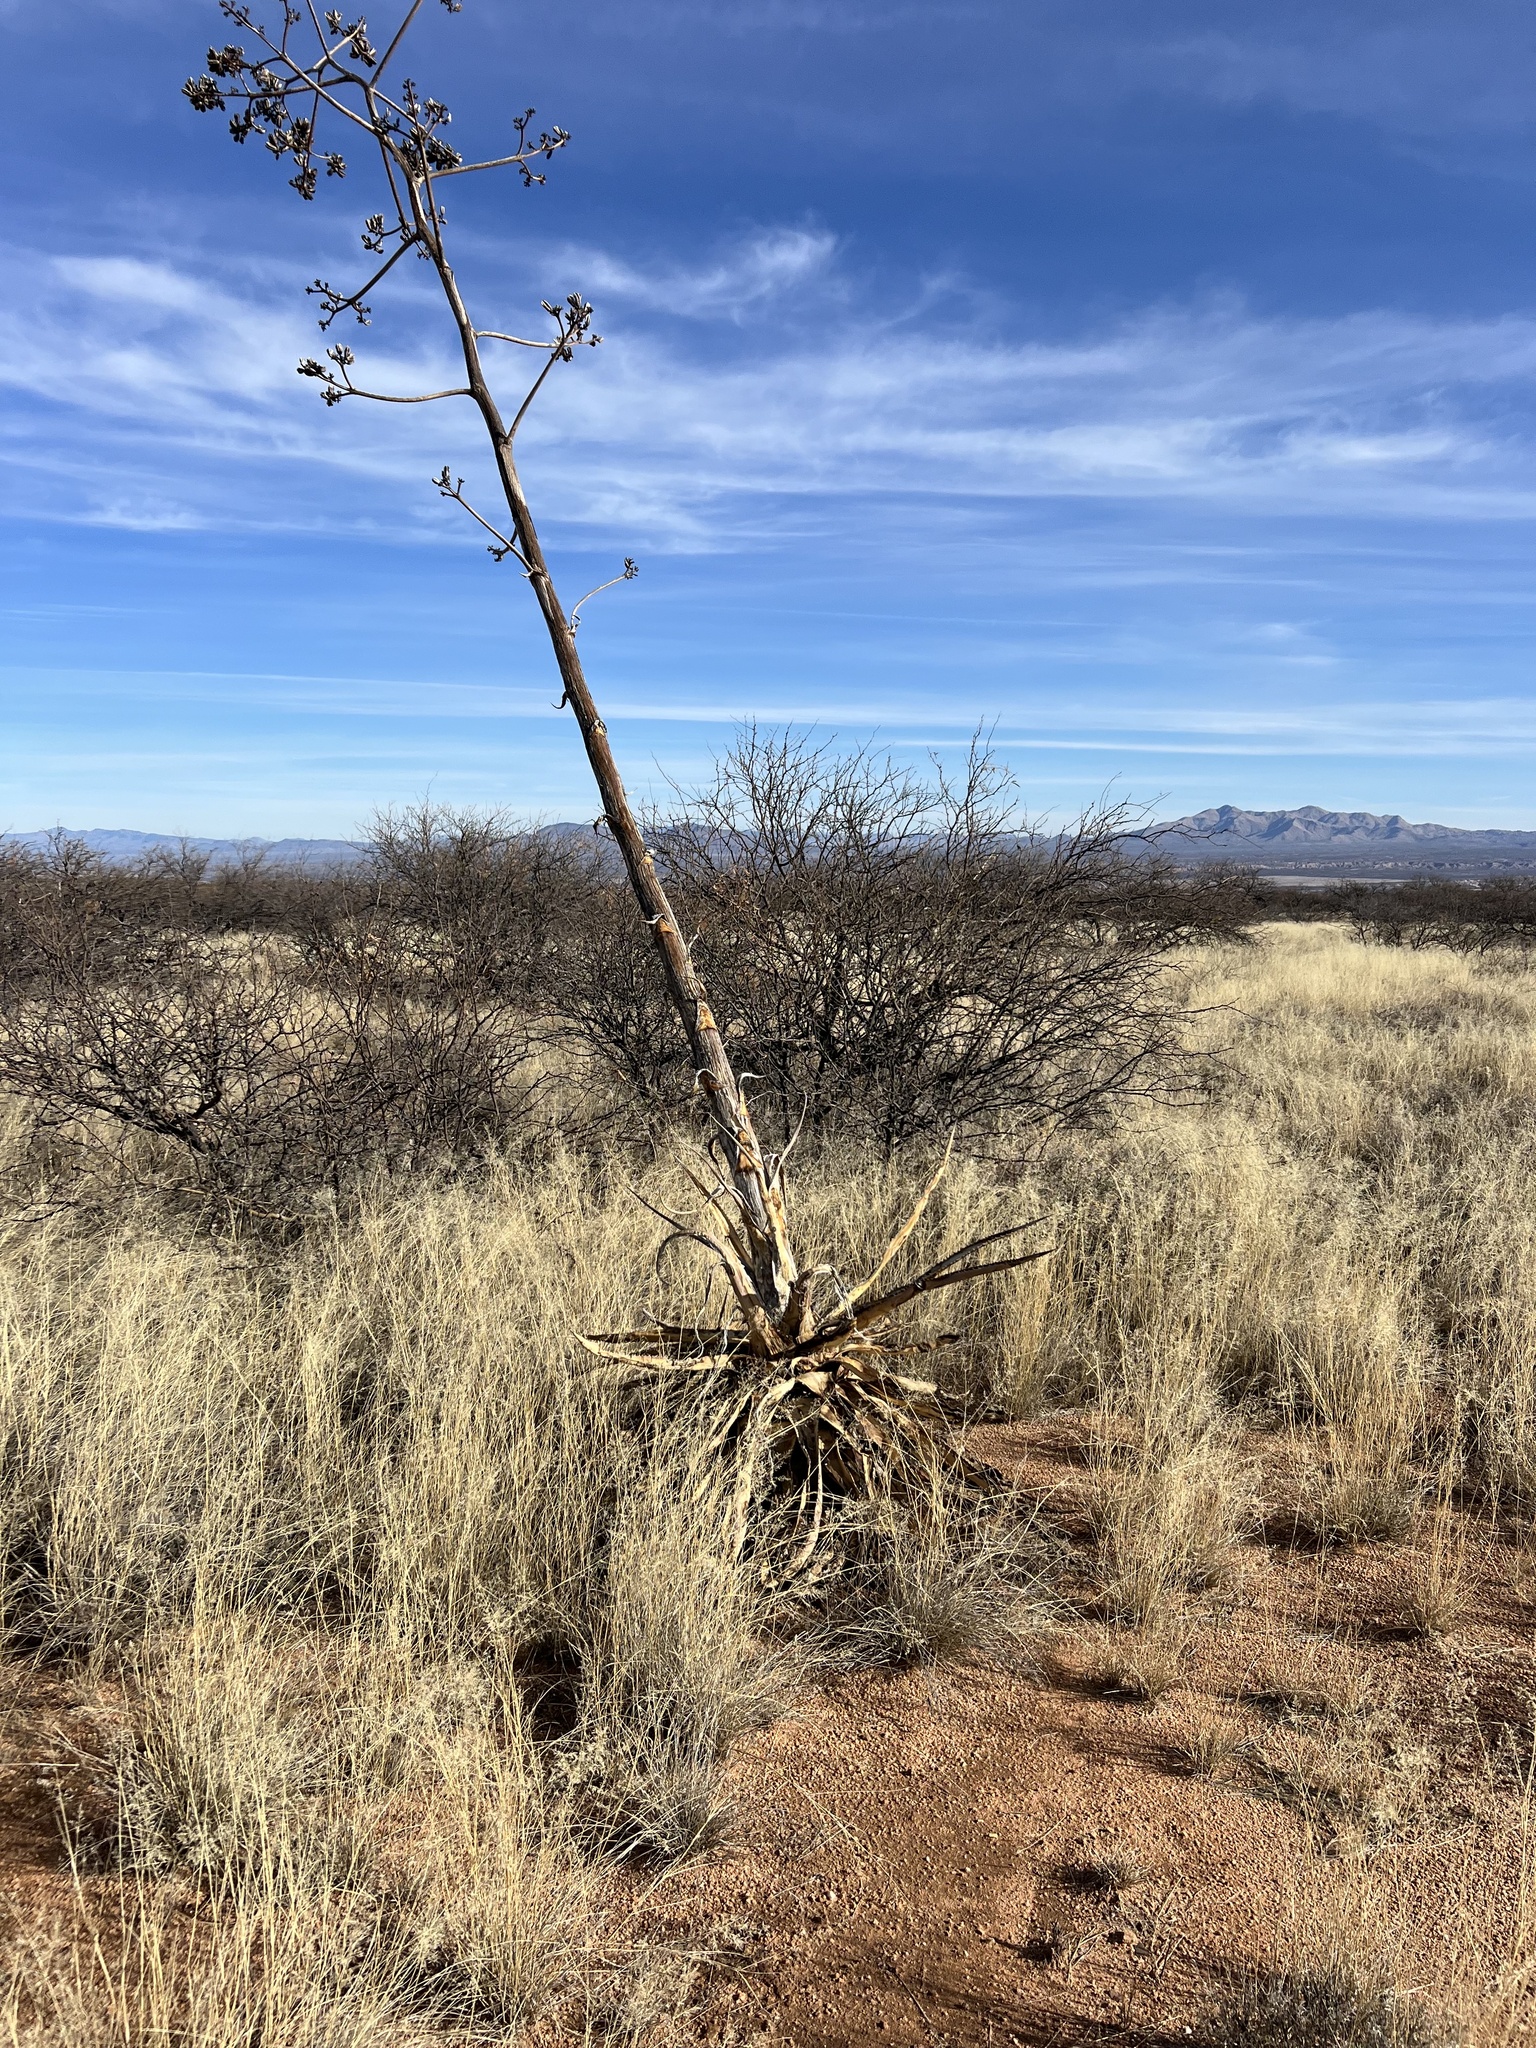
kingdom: Plantae
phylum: Tracheophyta
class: Liliopsida
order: Asparagales
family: Asparagaceae
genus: Agave
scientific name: Agave palmeri
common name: Palmer agave
